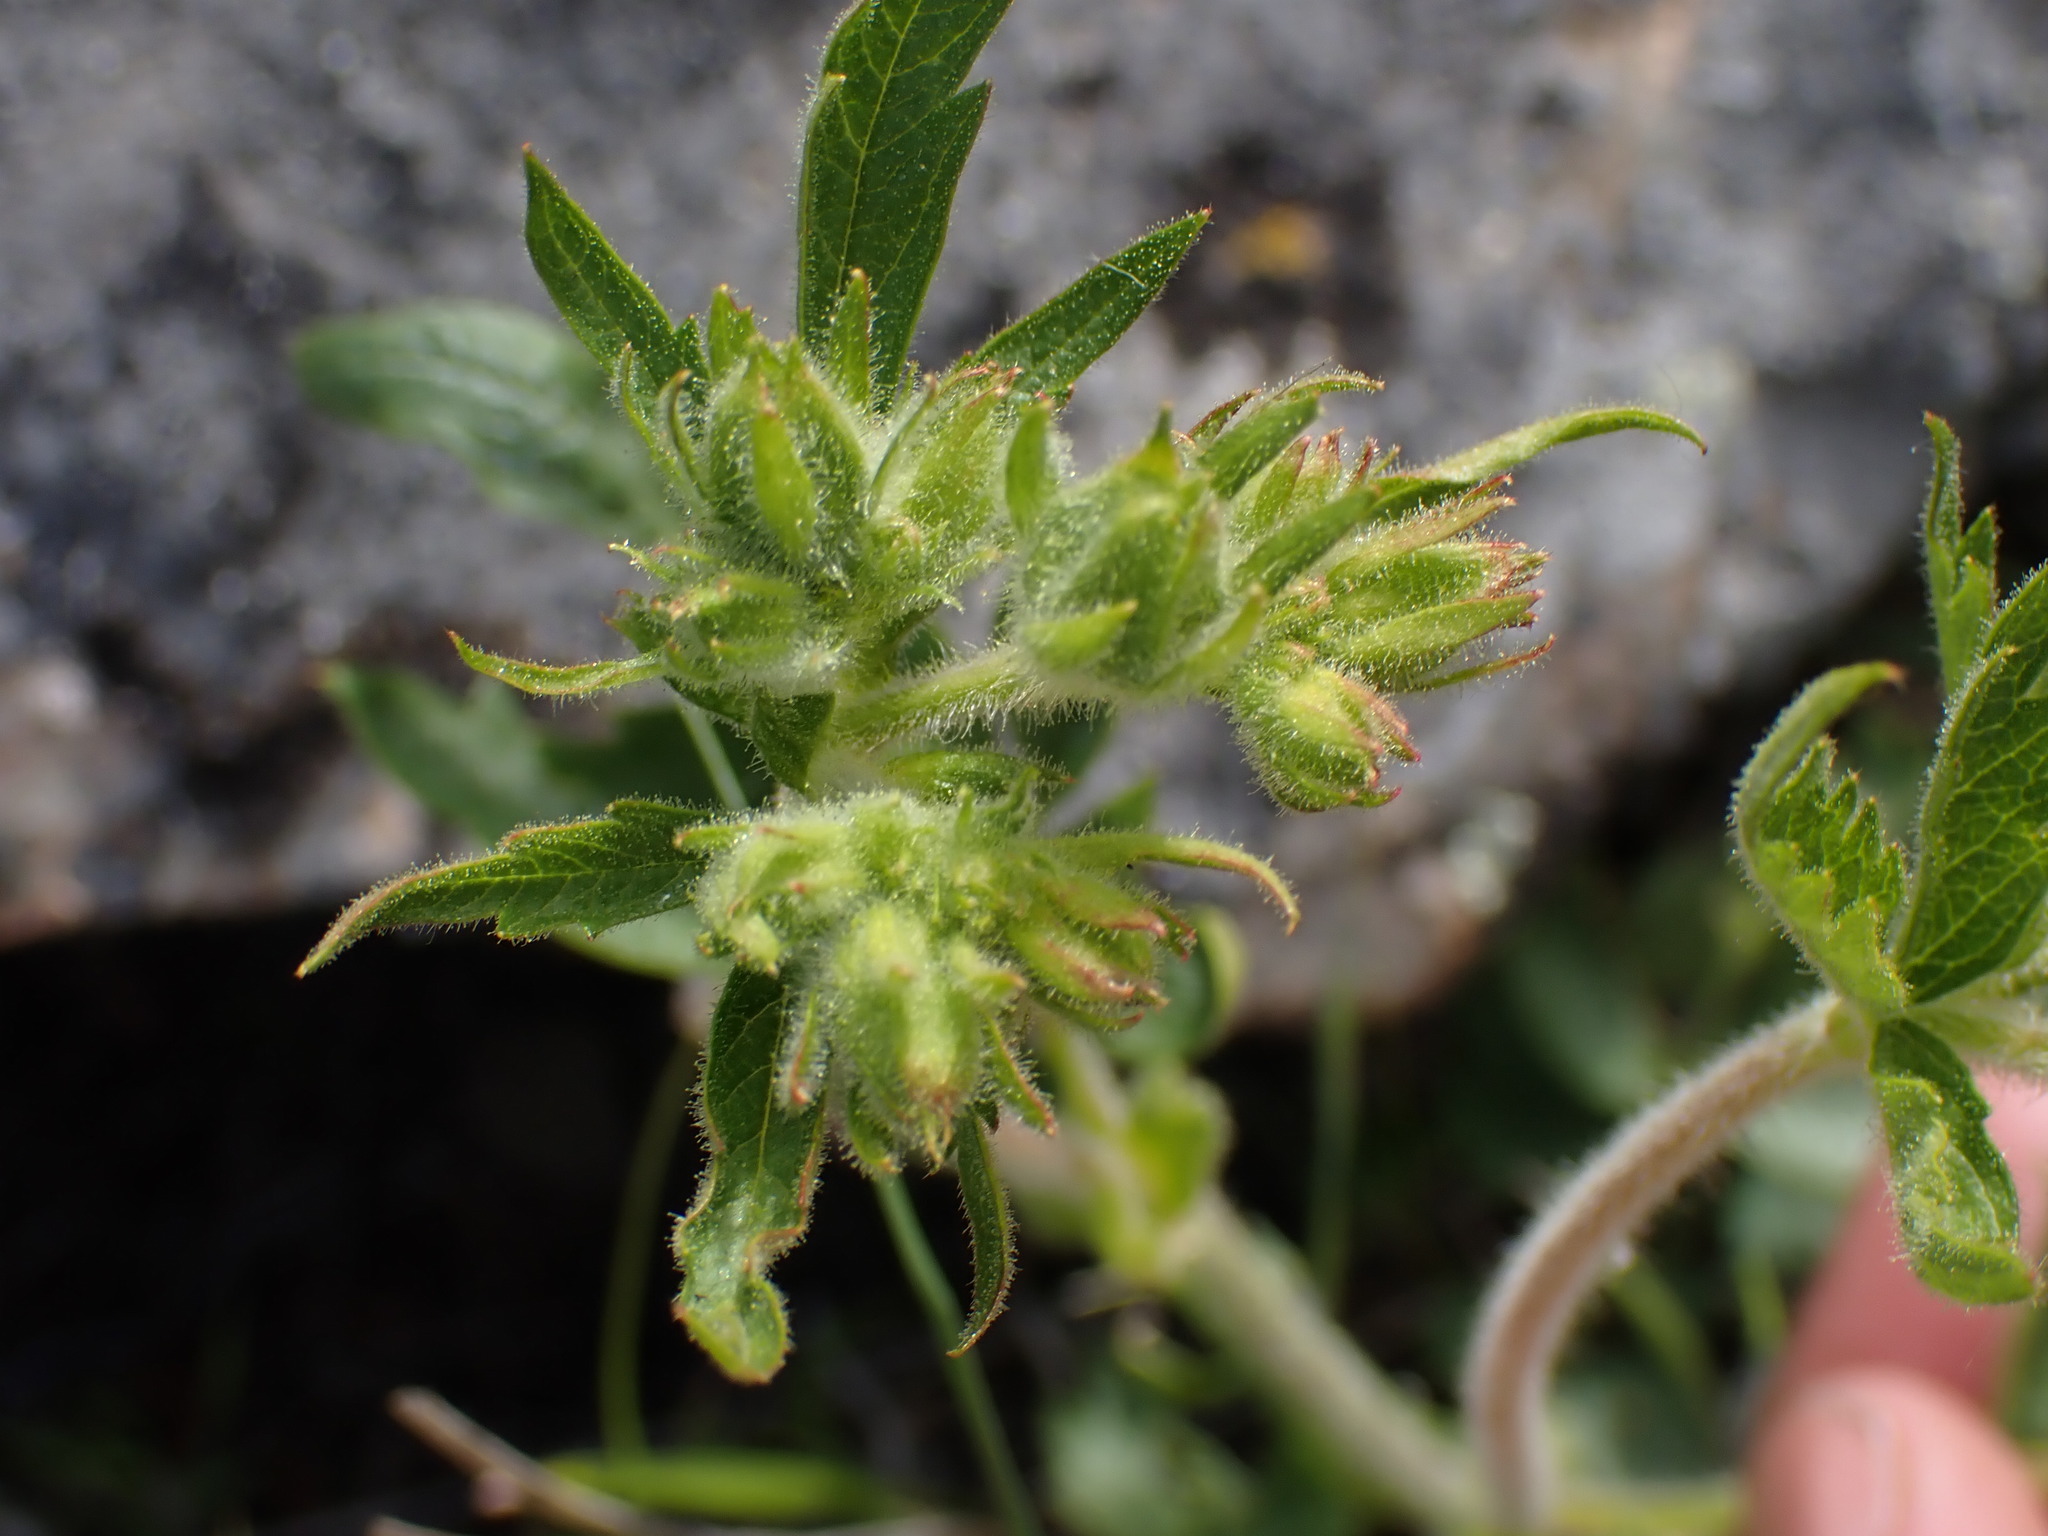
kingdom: Plantae
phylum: Tracheophyta
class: Magnoliopsida
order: Rosales
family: Rosaceae
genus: Drymocallis
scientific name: Drymocallis convallaria
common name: Cream cinquefoil
